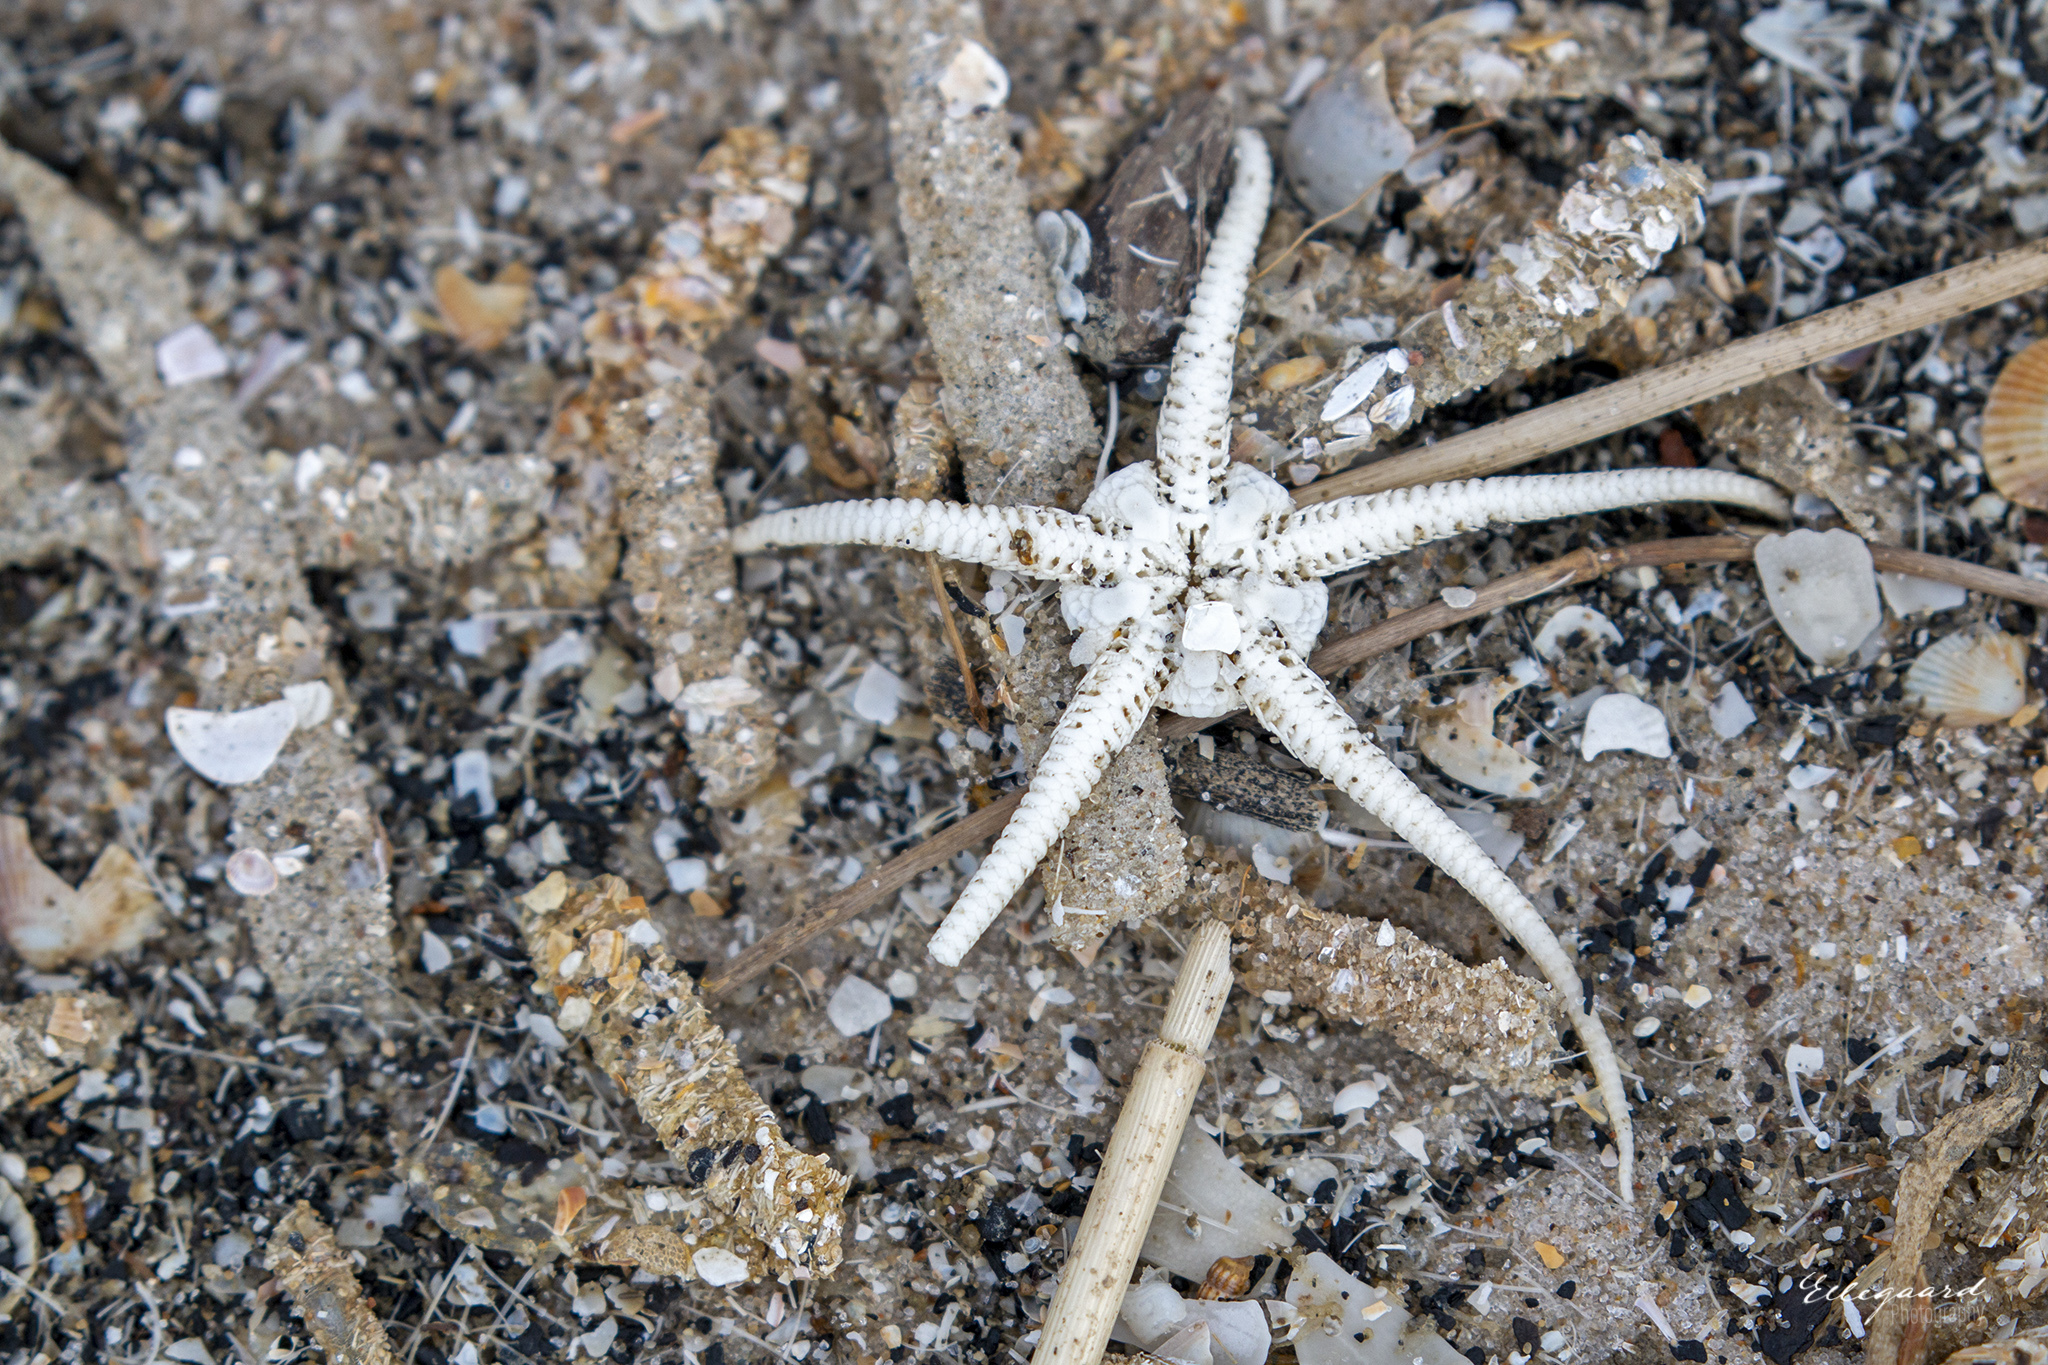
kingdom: Animalia
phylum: Echinodermata
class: Ophiuroidea
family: Ophiuridae
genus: Ophiura
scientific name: Ophiura ophiura
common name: Serpent star
